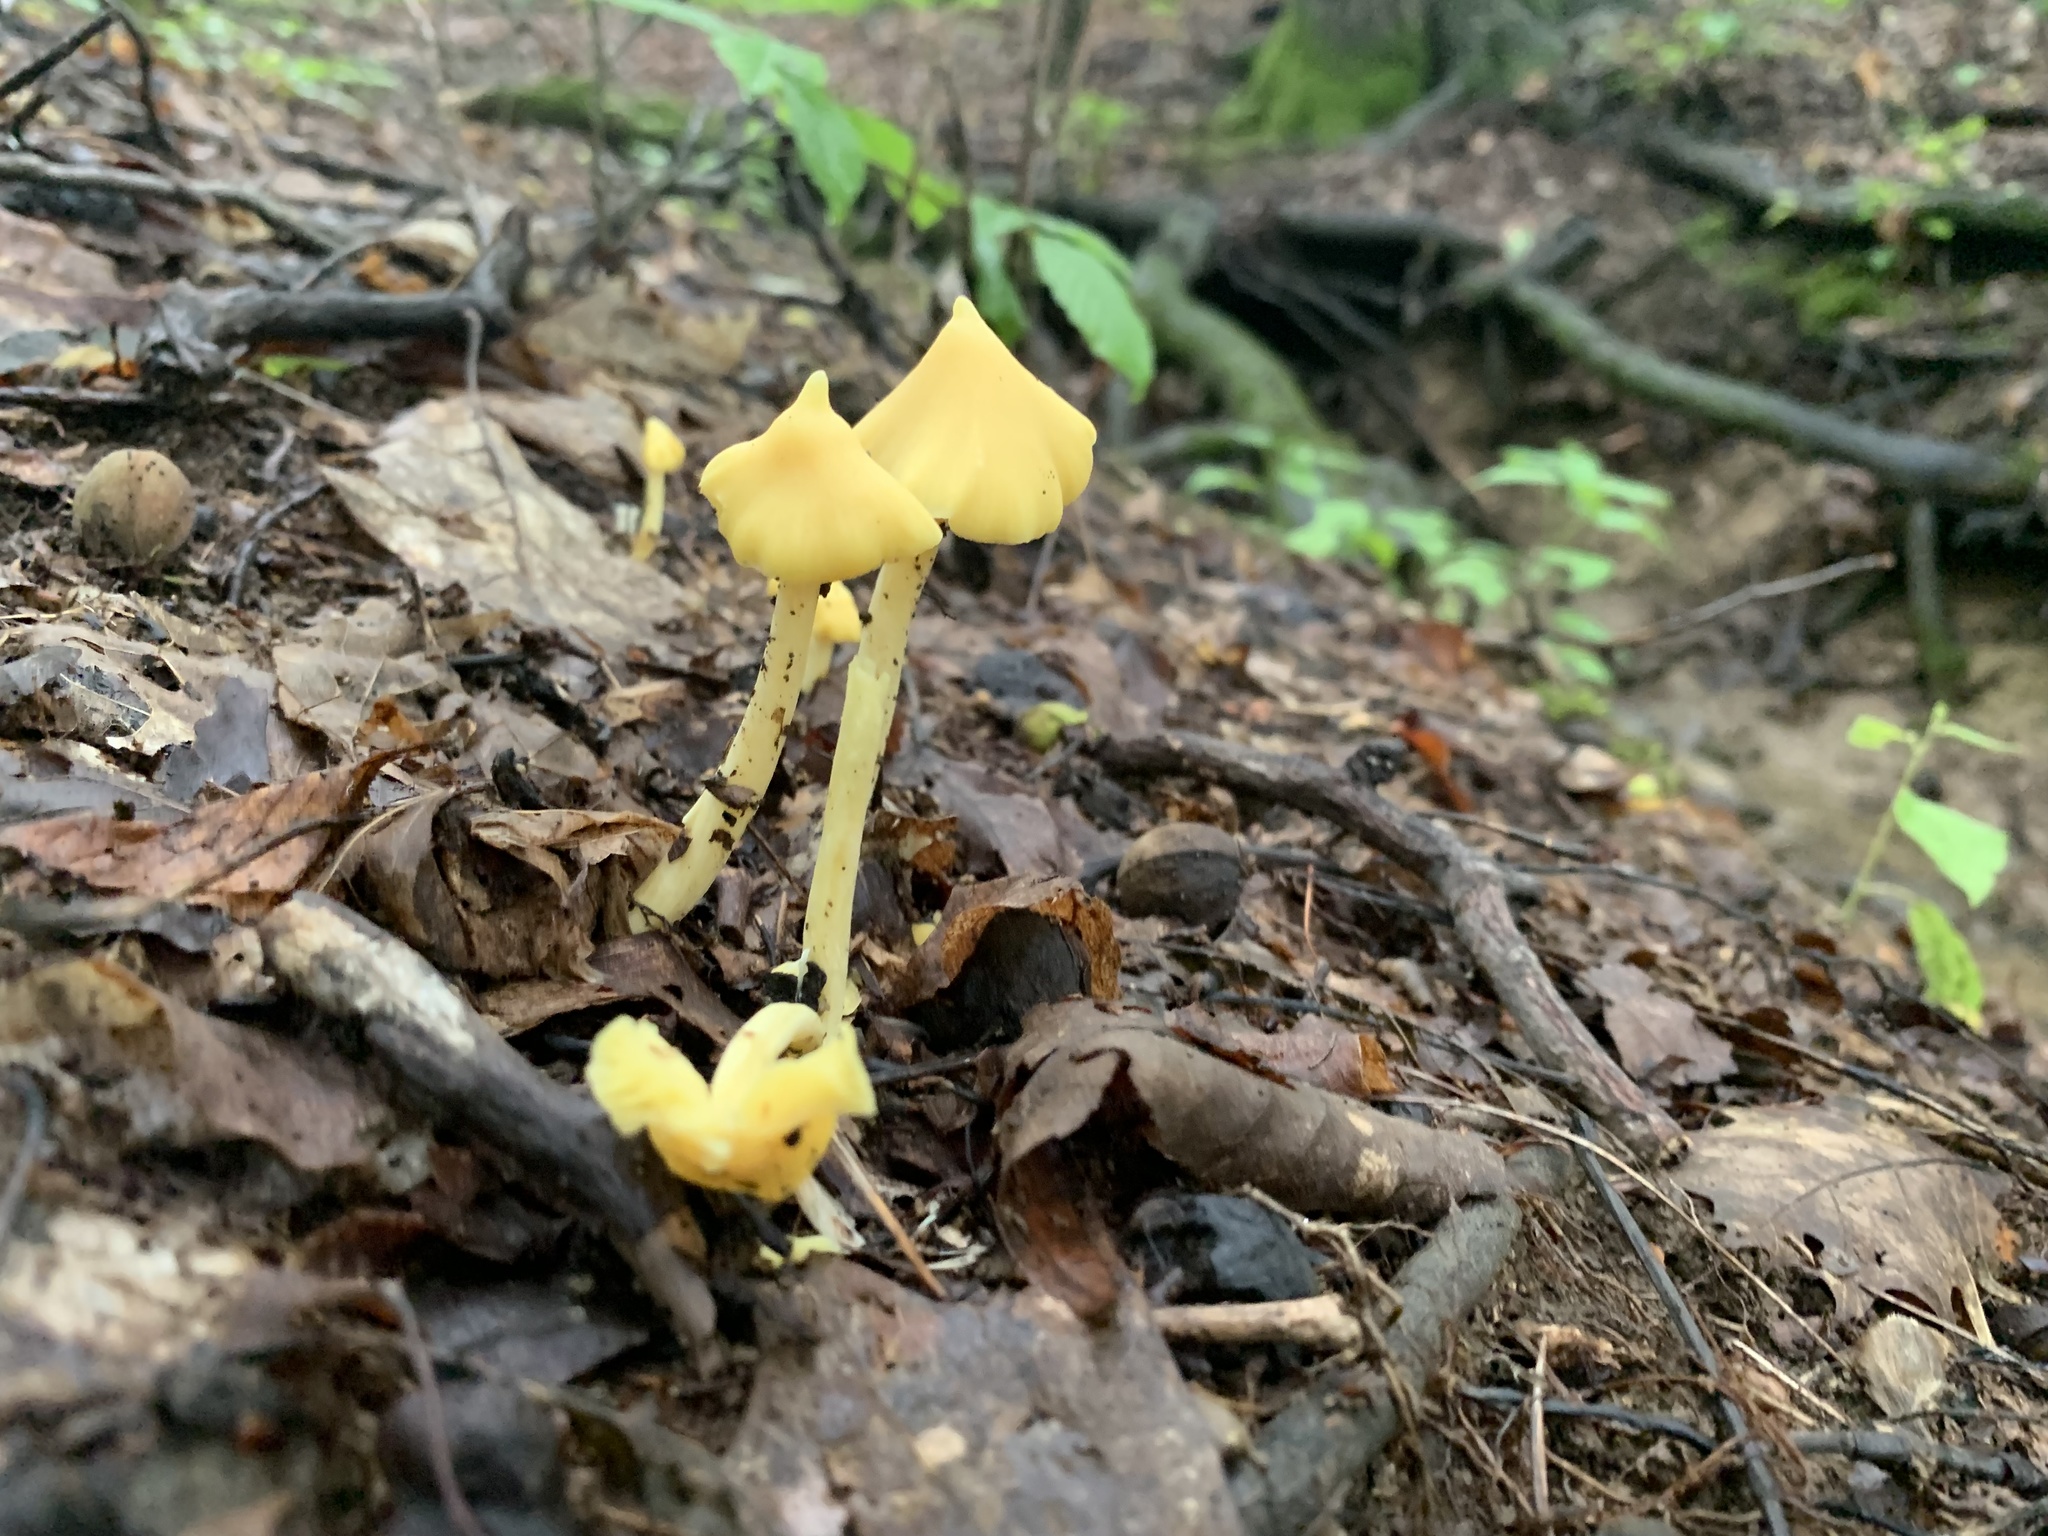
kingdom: Fungi
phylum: Basidiomycota
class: Agaricomycetes
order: Agaricales
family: Entolomataceae
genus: Entoloma
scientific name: Entoloma murrayi
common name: Yellow unicorn entoloma
